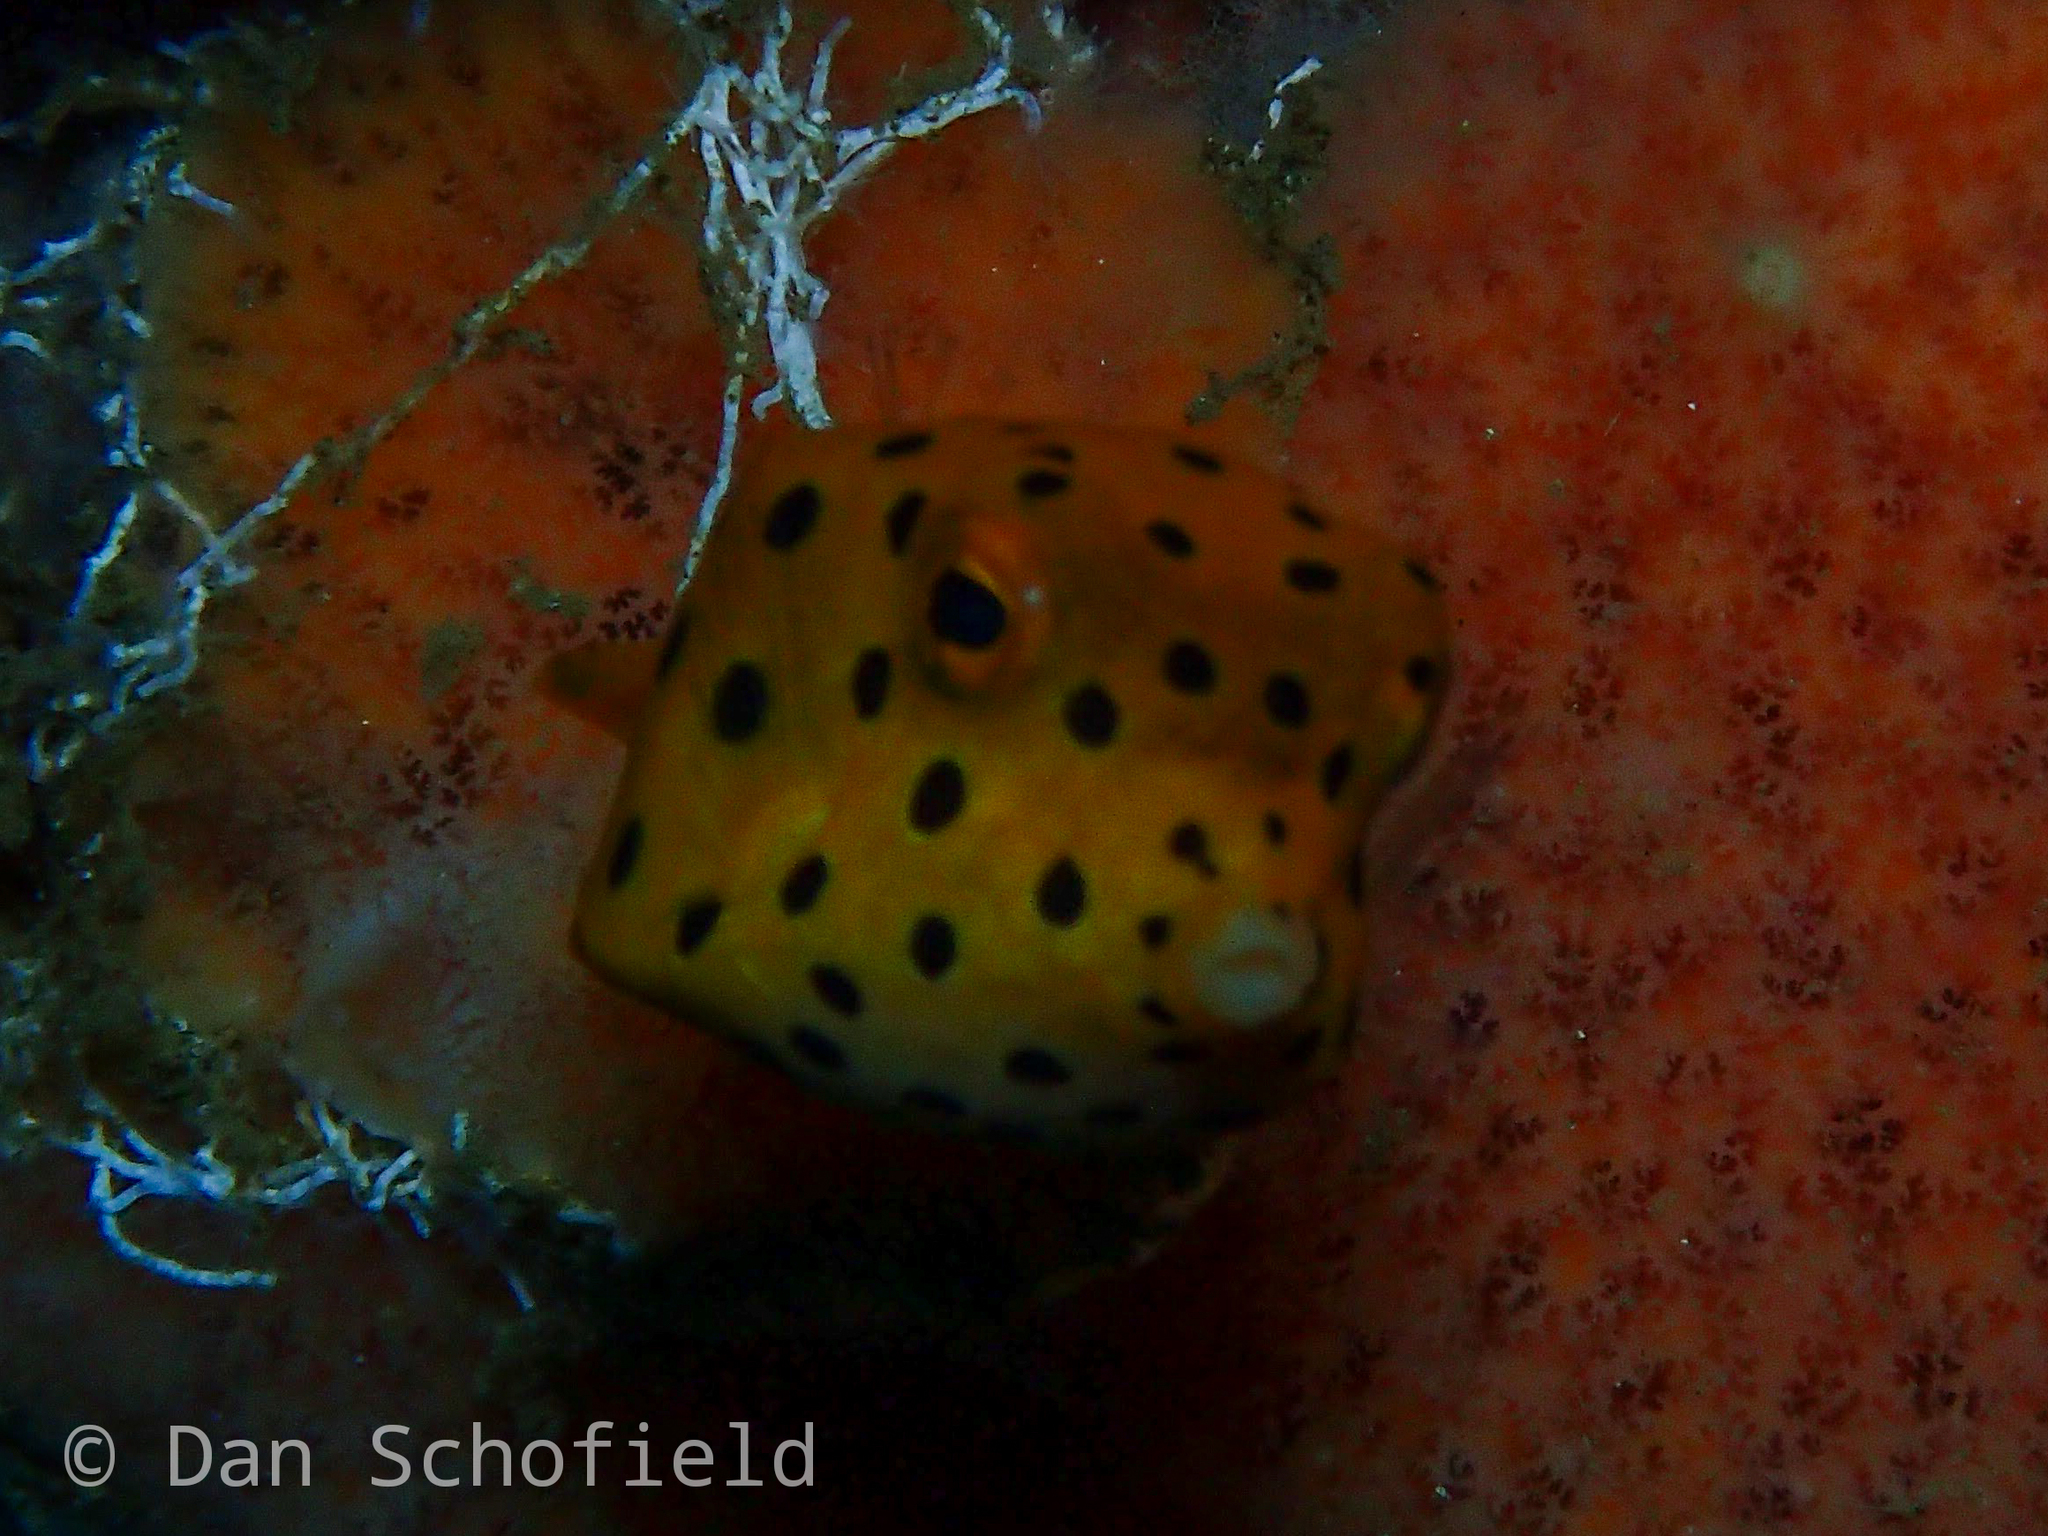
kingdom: Animalia
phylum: Chordata
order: Tetraodontiformes
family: Ostraciidae
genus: Ostracion
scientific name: Ostracion cubicus
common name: Cube trunkfish
